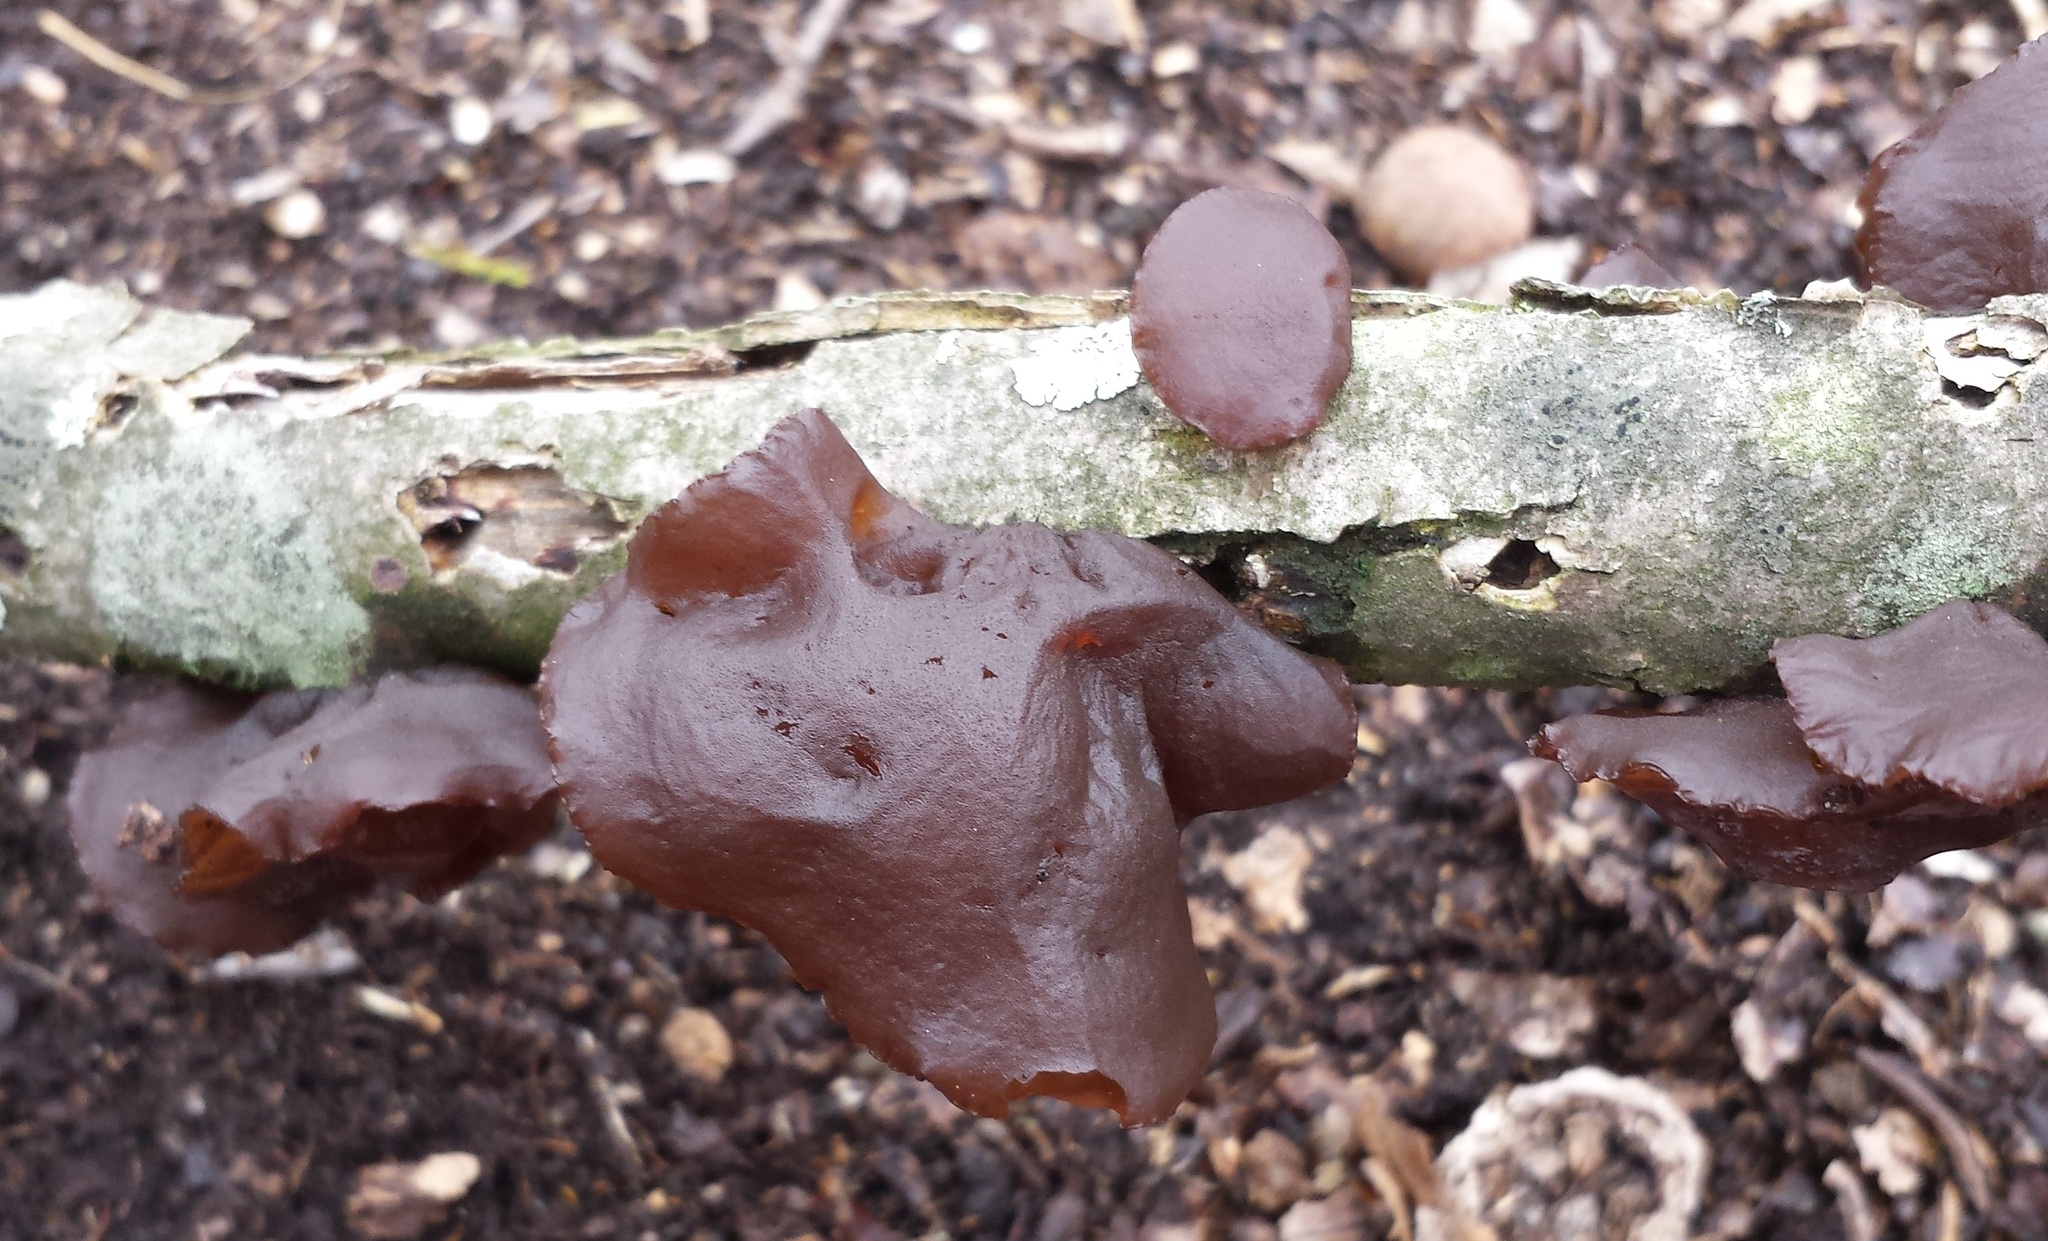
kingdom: Fungi
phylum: Basidiomycota
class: Agaricomycetes
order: Auriculariales
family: Auriculariaceae
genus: Exidia
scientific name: Exidia
